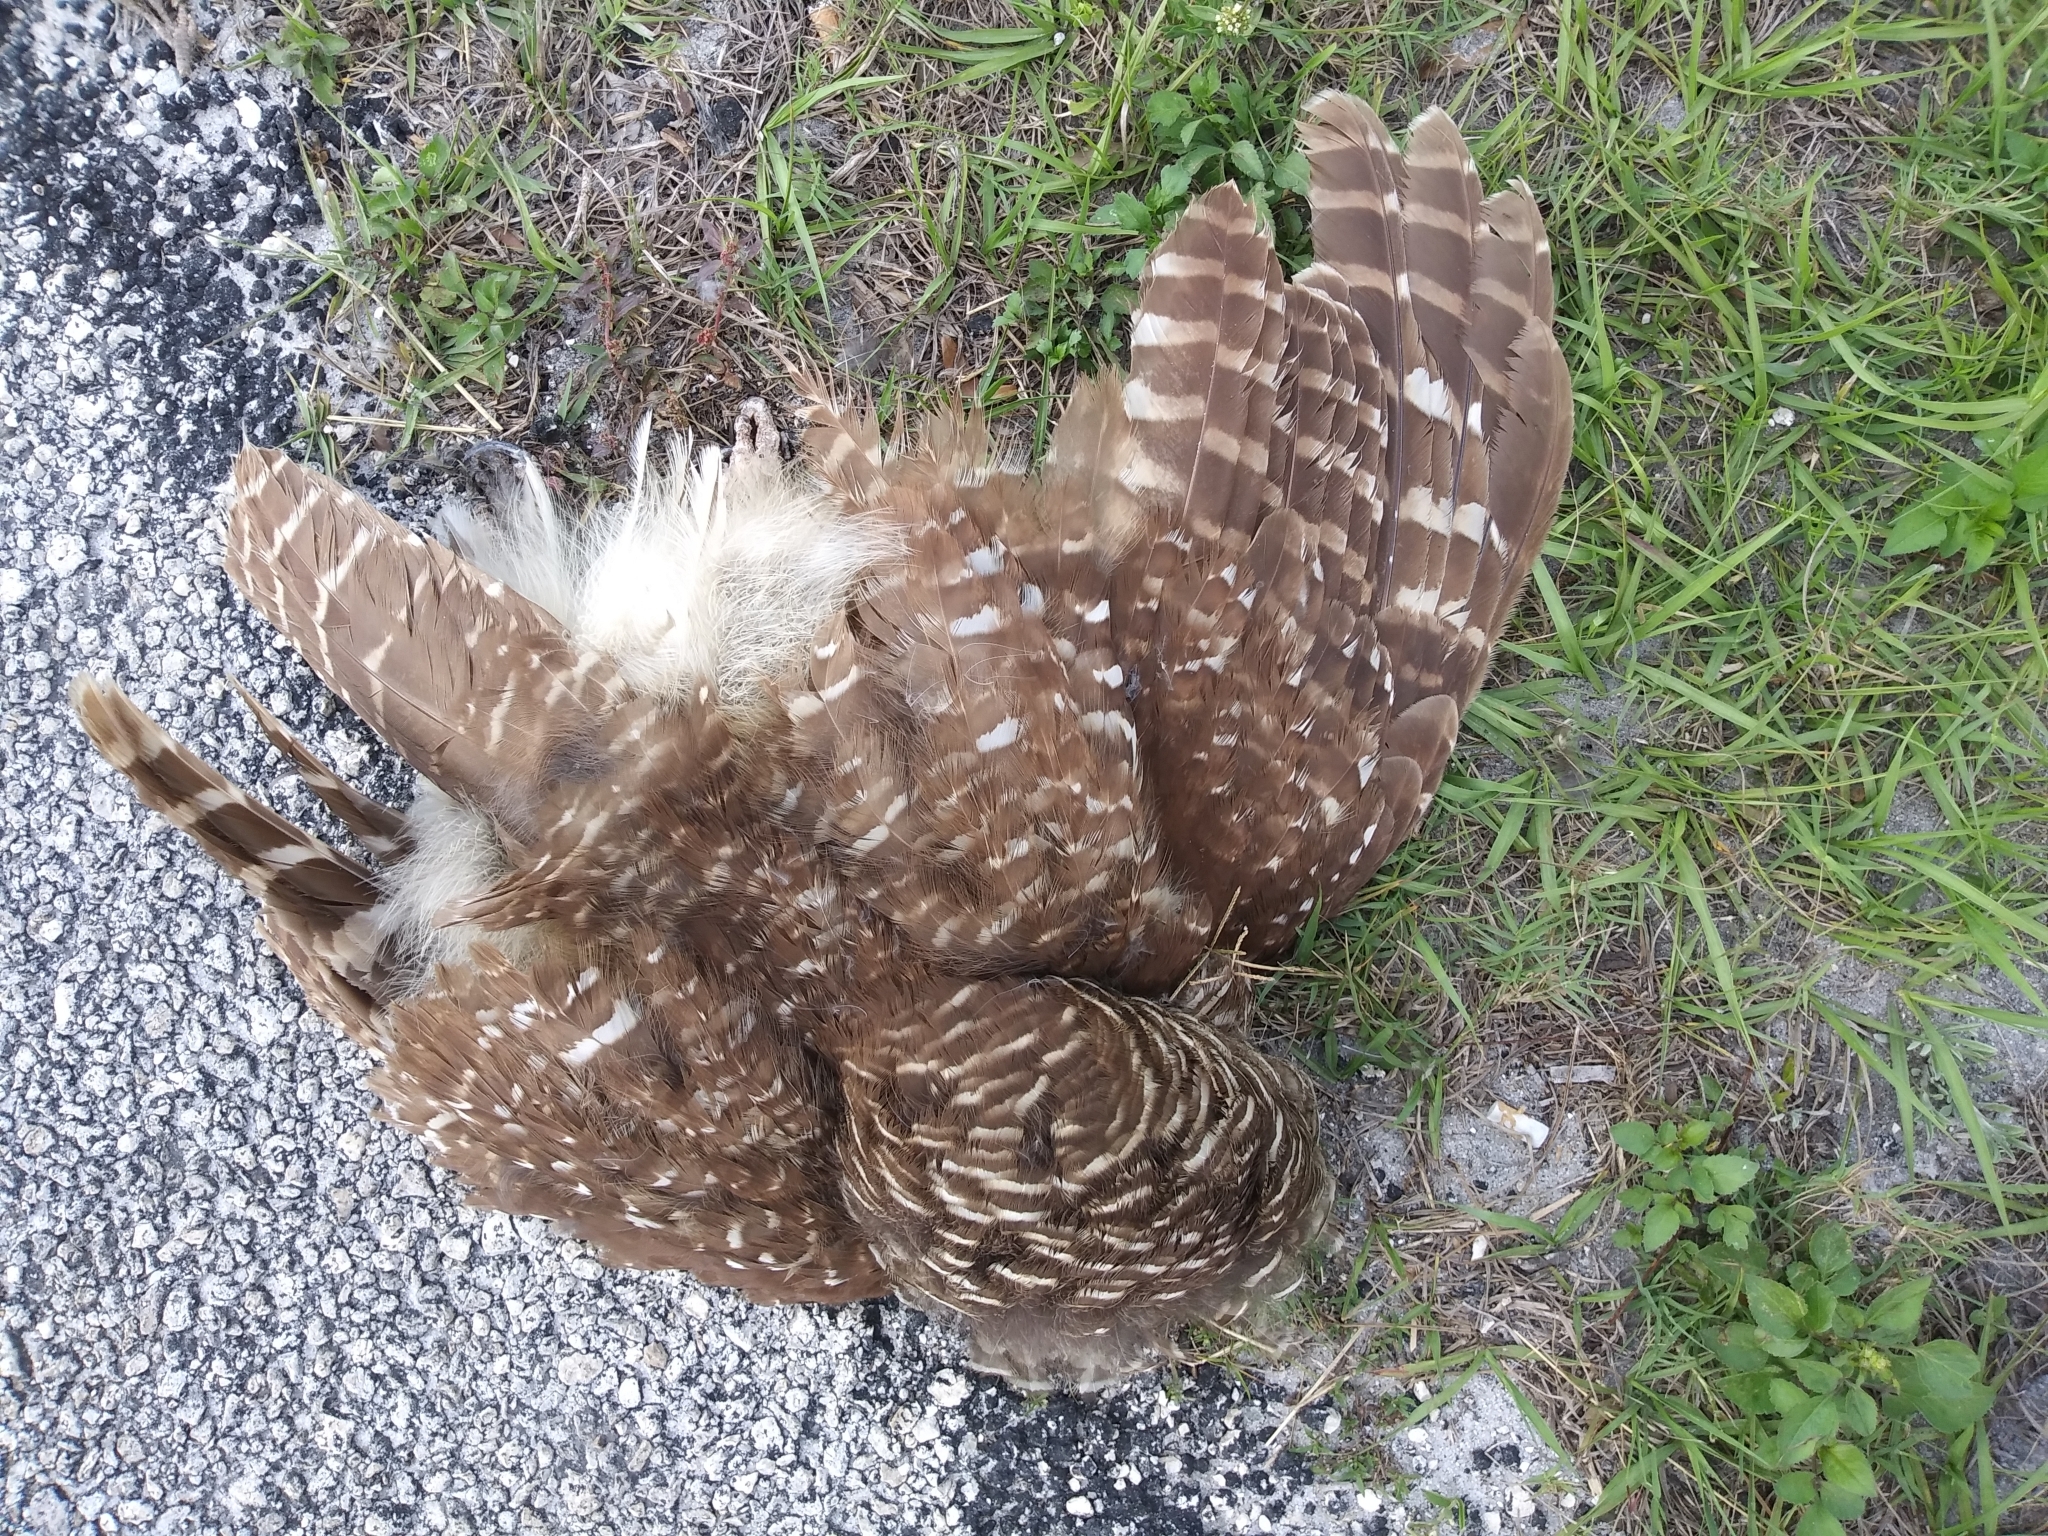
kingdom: Animalia
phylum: Chordata
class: Aves
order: Strigiformes
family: Strigidae
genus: Strix
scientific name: Strix varia
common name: Barred owl
